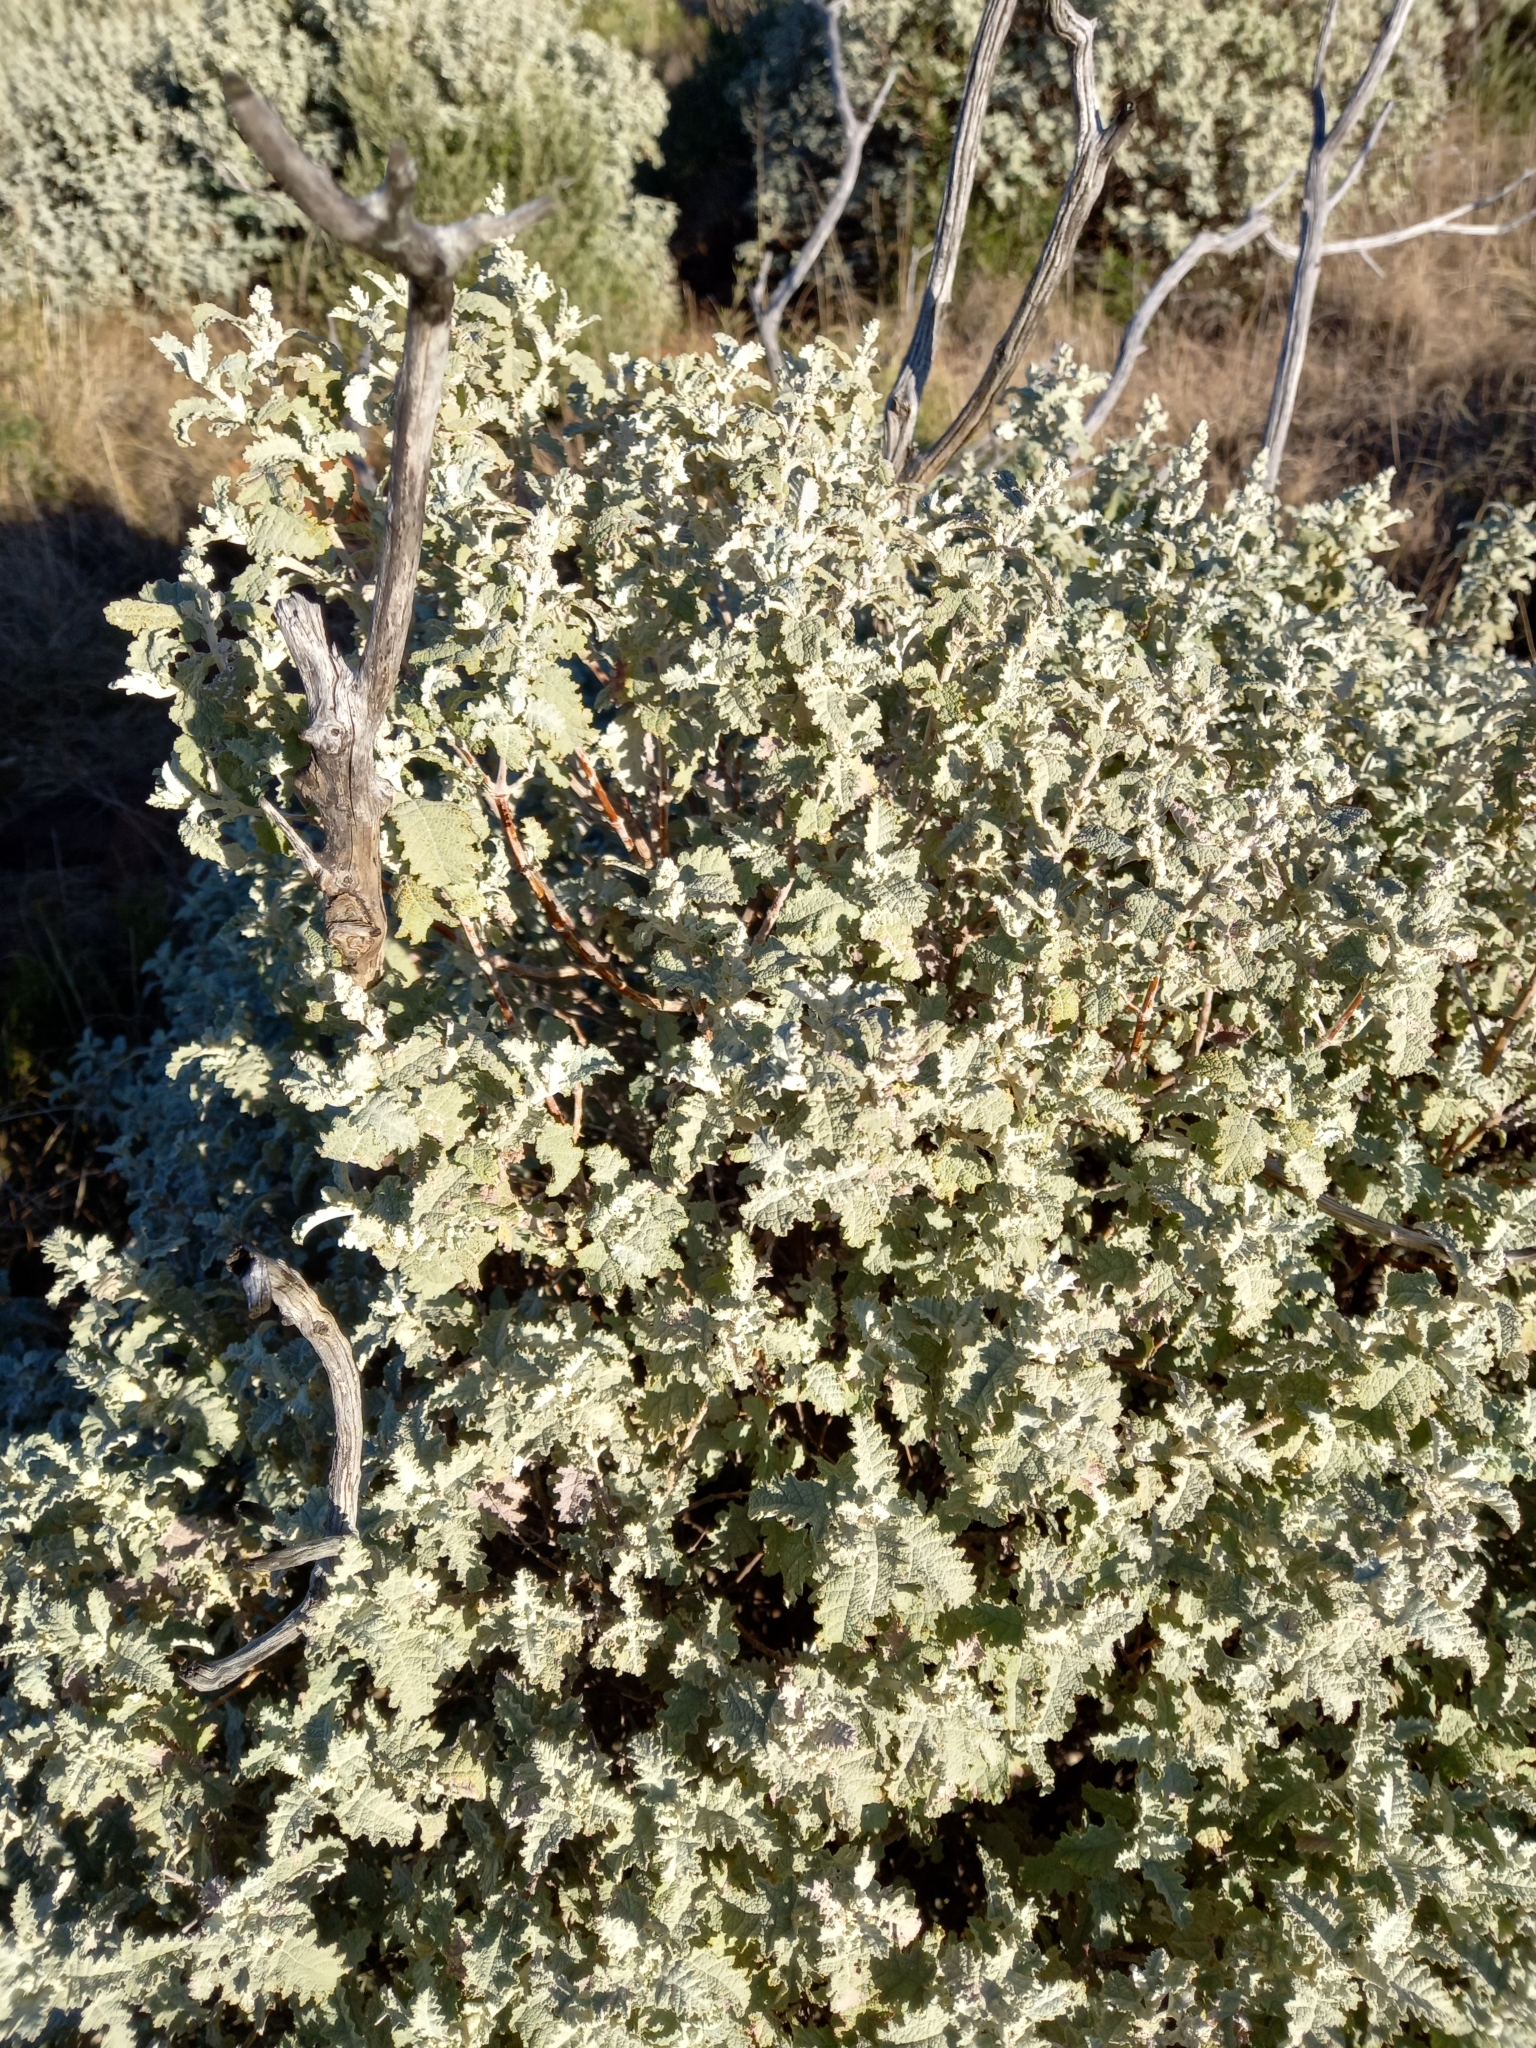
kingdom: Plantae
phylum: Tracheophyta
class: Magnoliopsida
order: Lamiales
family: Scrophulariaceae
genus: Buddleja
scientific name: Buddleja glomerata
